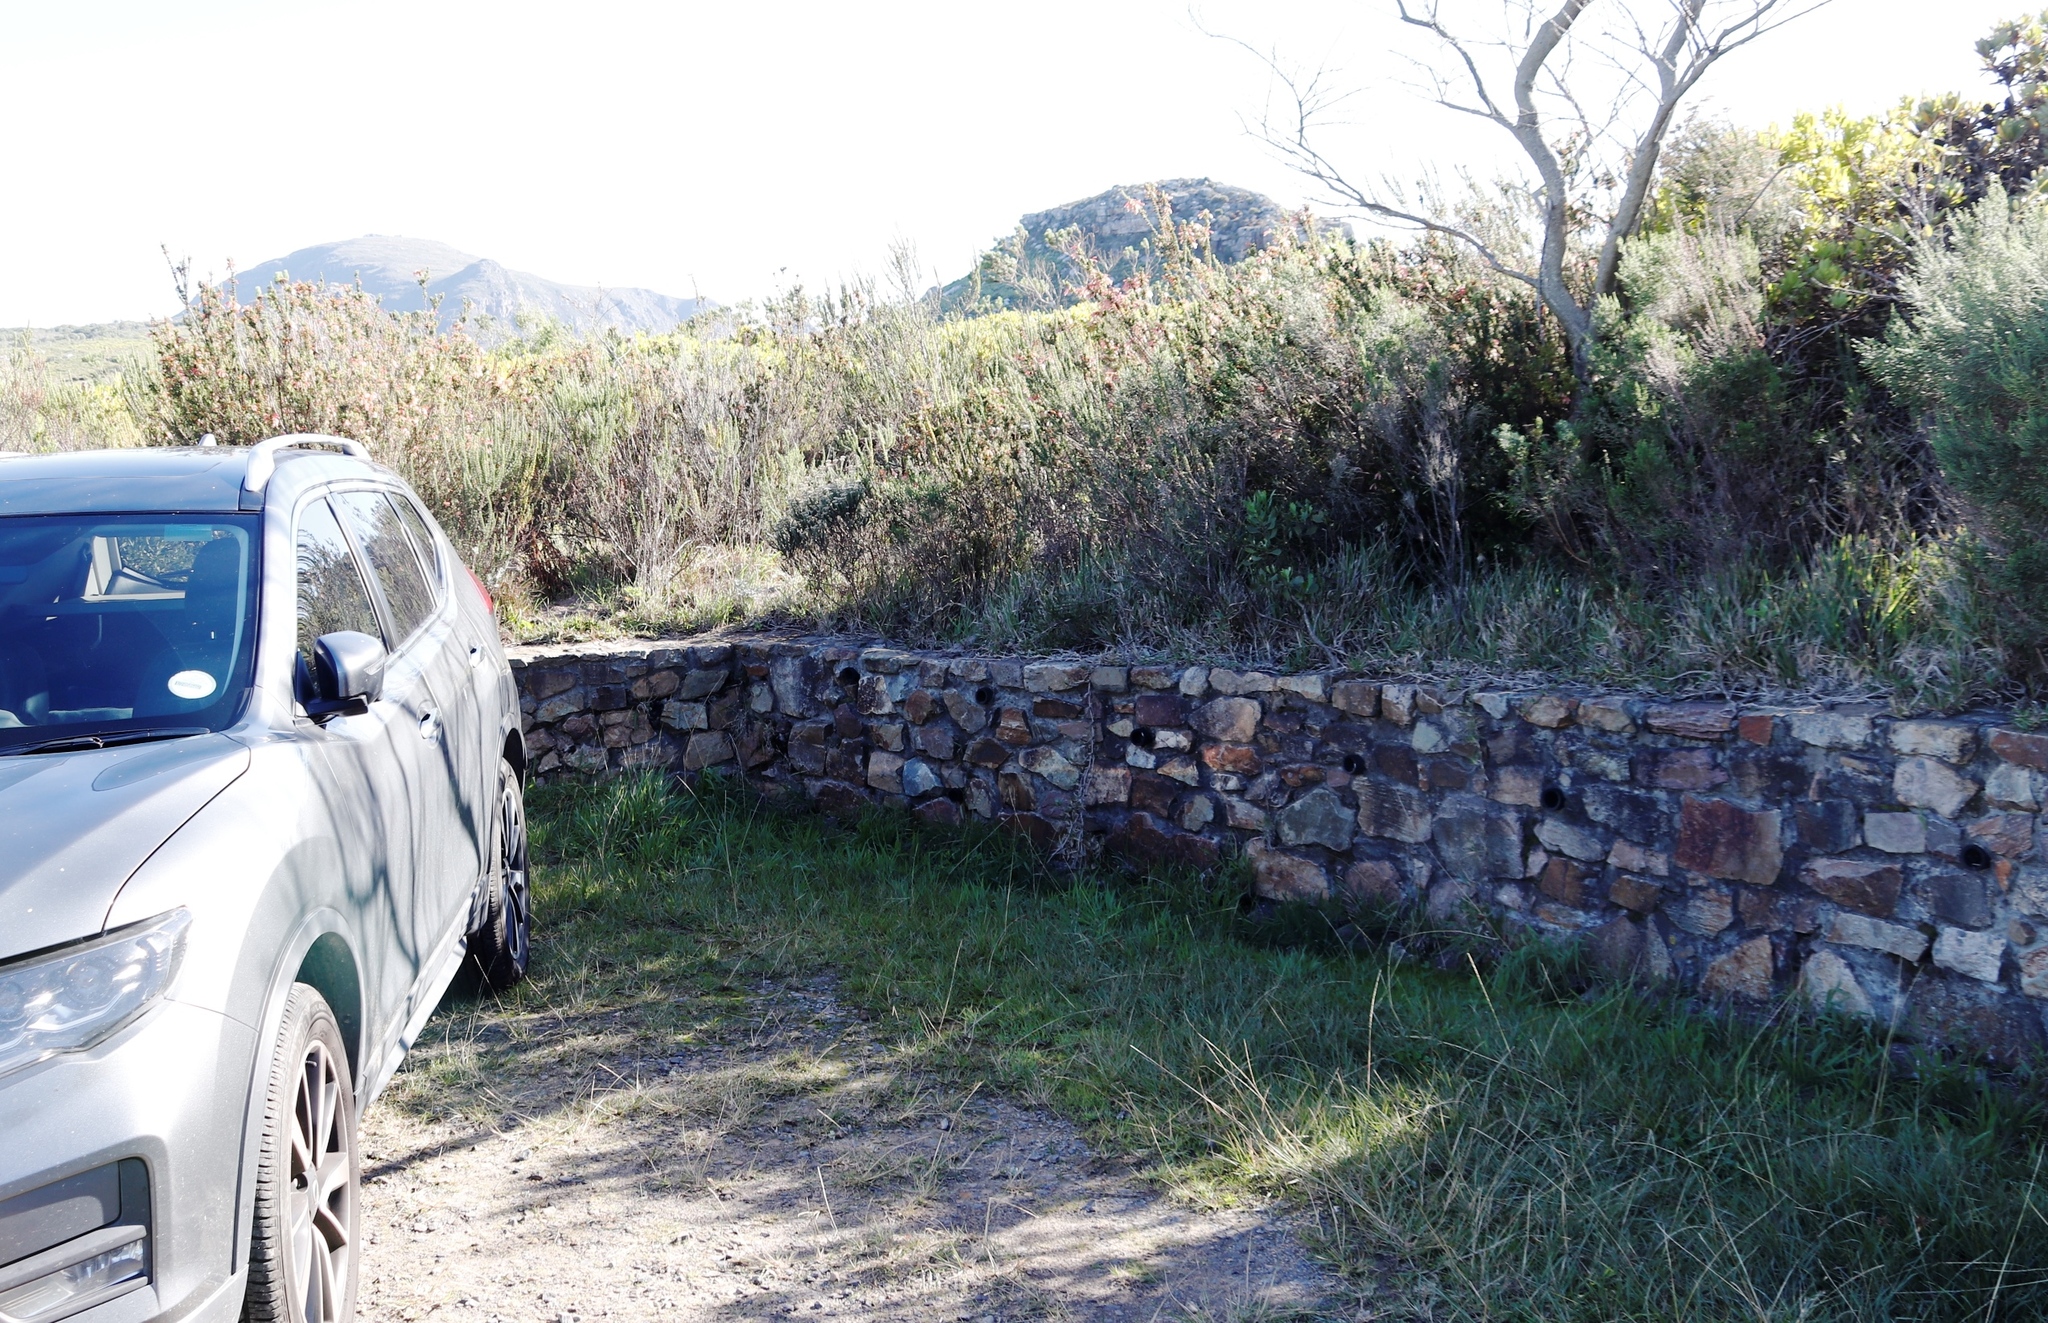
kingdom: Plantae
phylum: Tracheophyta
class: Magnoliopsida
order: Ericales
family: Ericaceae
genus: Erica
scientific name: Erica glandulosa
